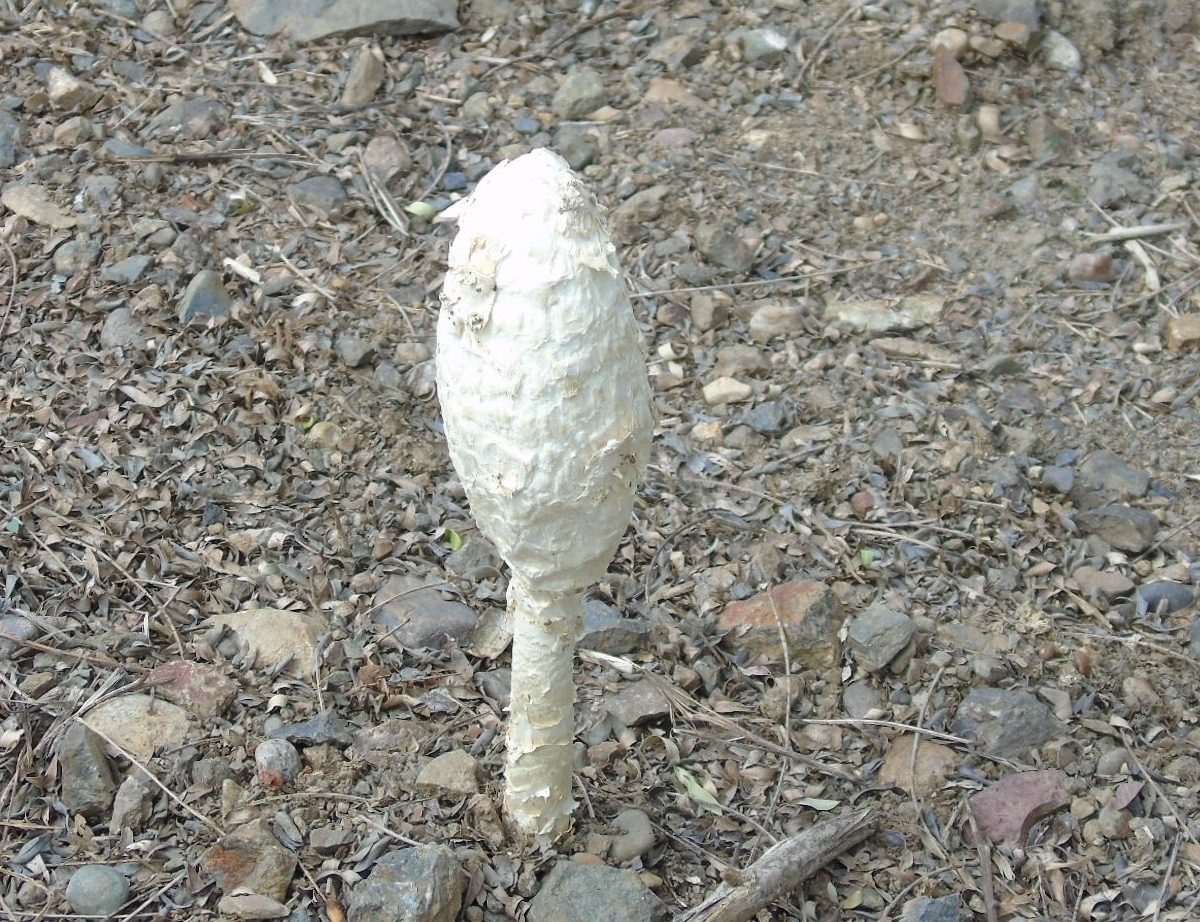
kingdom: Fungi
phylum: Basidiomycota
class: Agaricomycetes
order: Agaricales
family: Agaricaceae
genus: Podaxis
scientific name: Podaxis
